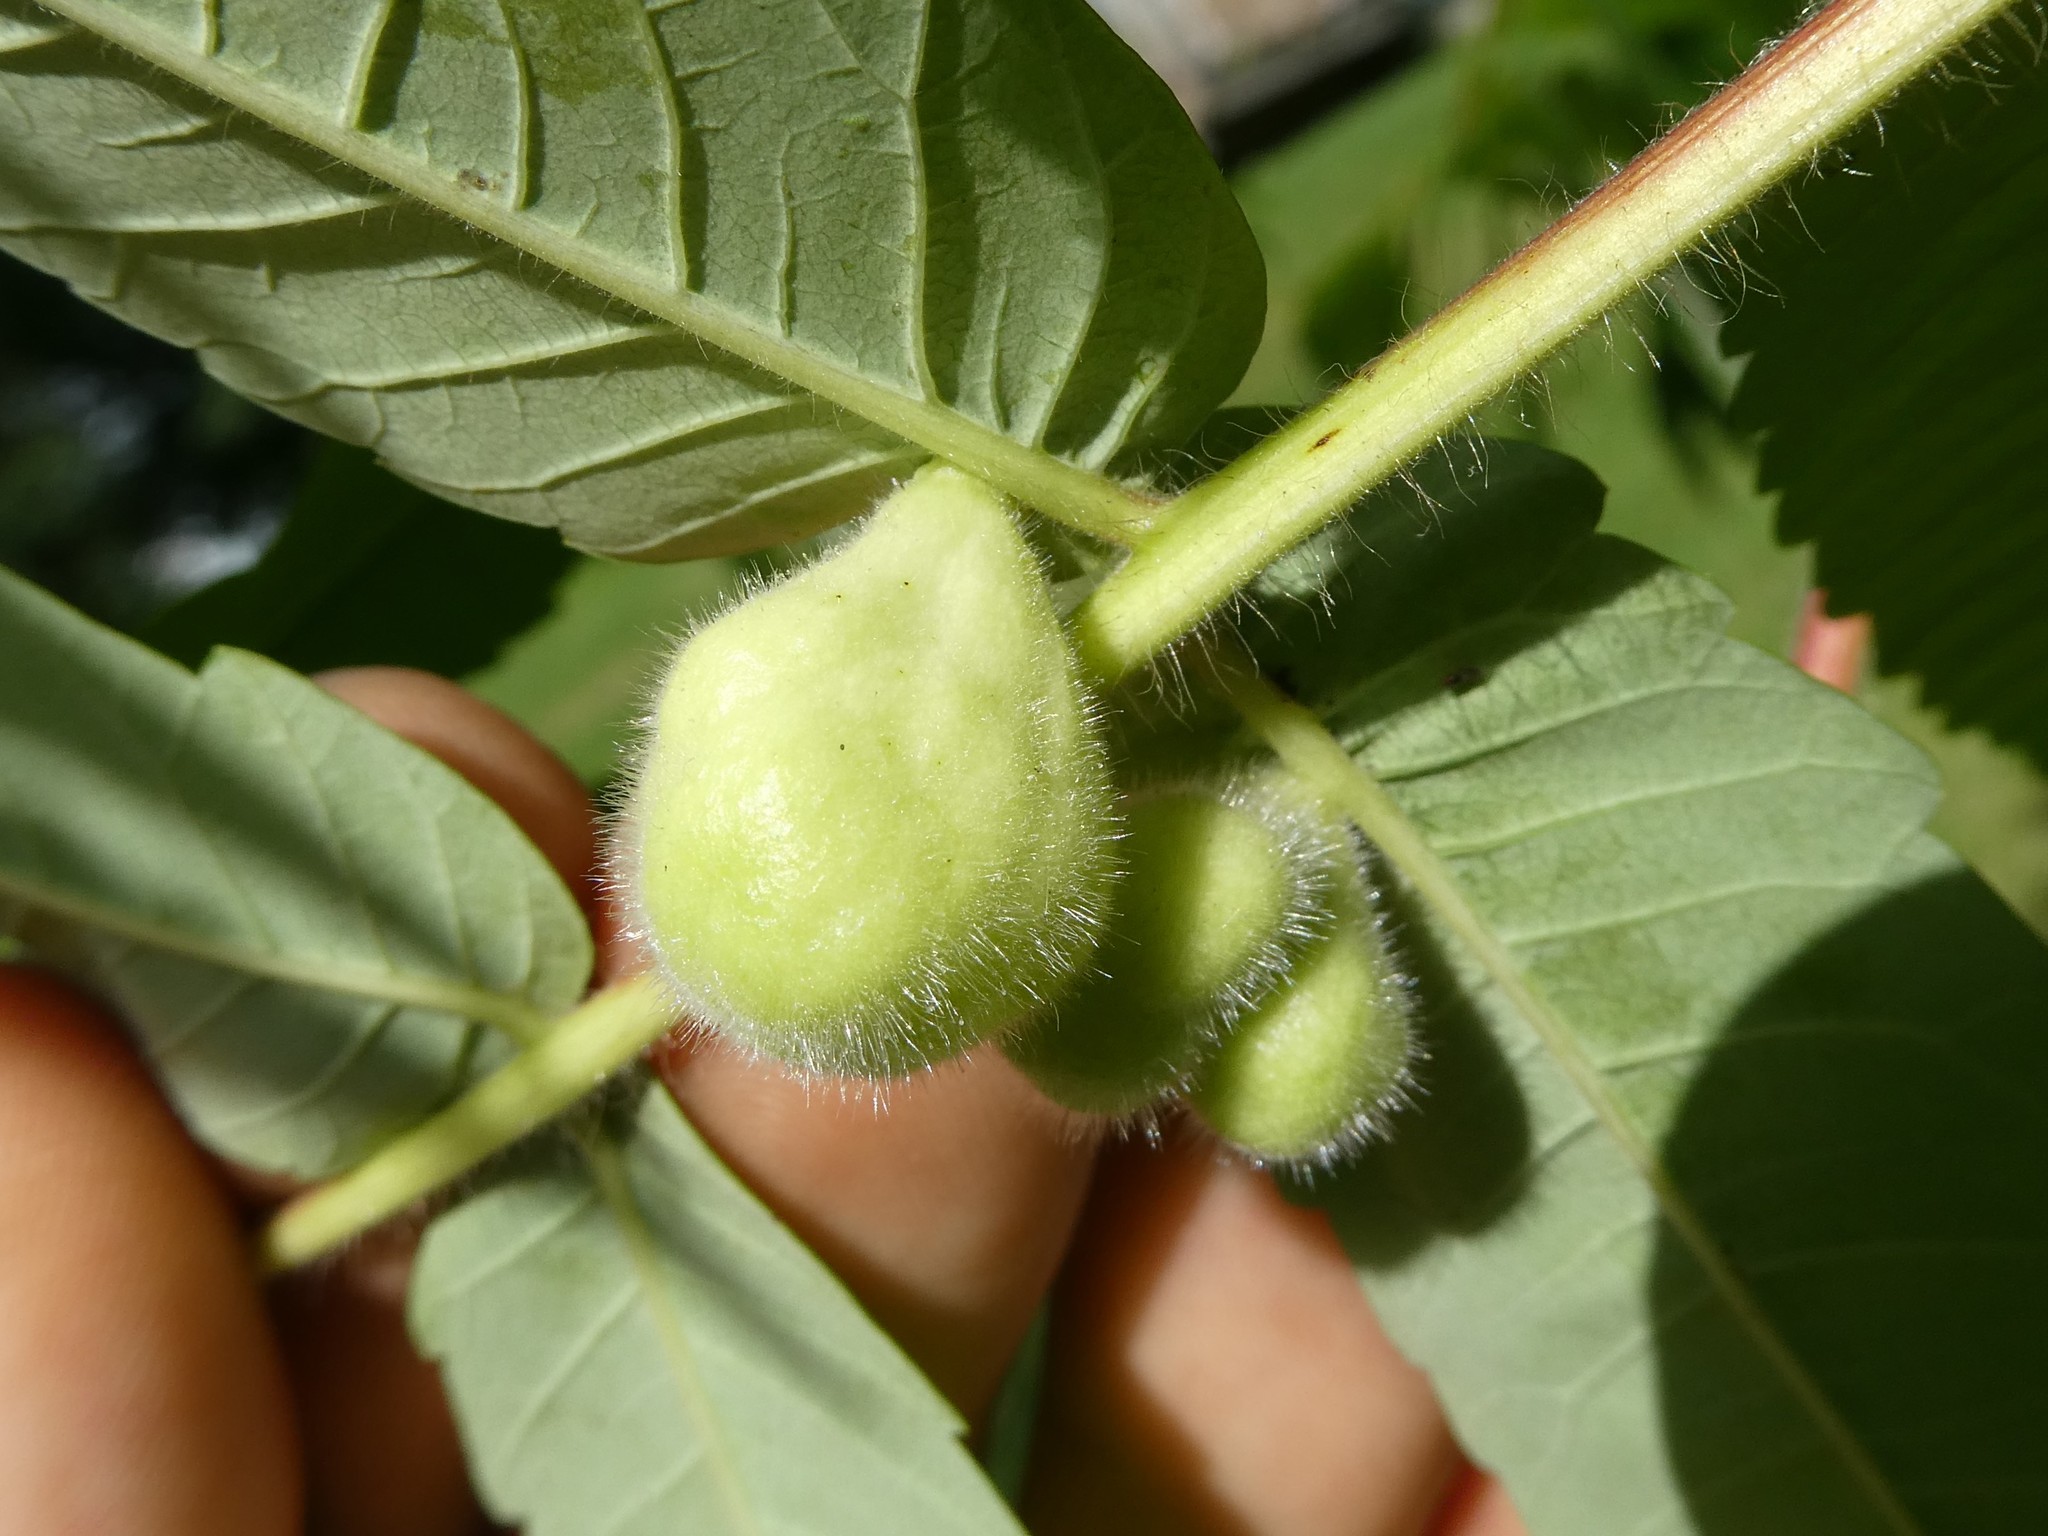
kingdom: Plantae
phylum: Tracheophyta
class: Magnoliopsida
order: Sapindales
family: Anacardiaceae
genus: Rhus
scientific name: Rhus typhina
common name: Staghorn sumac
